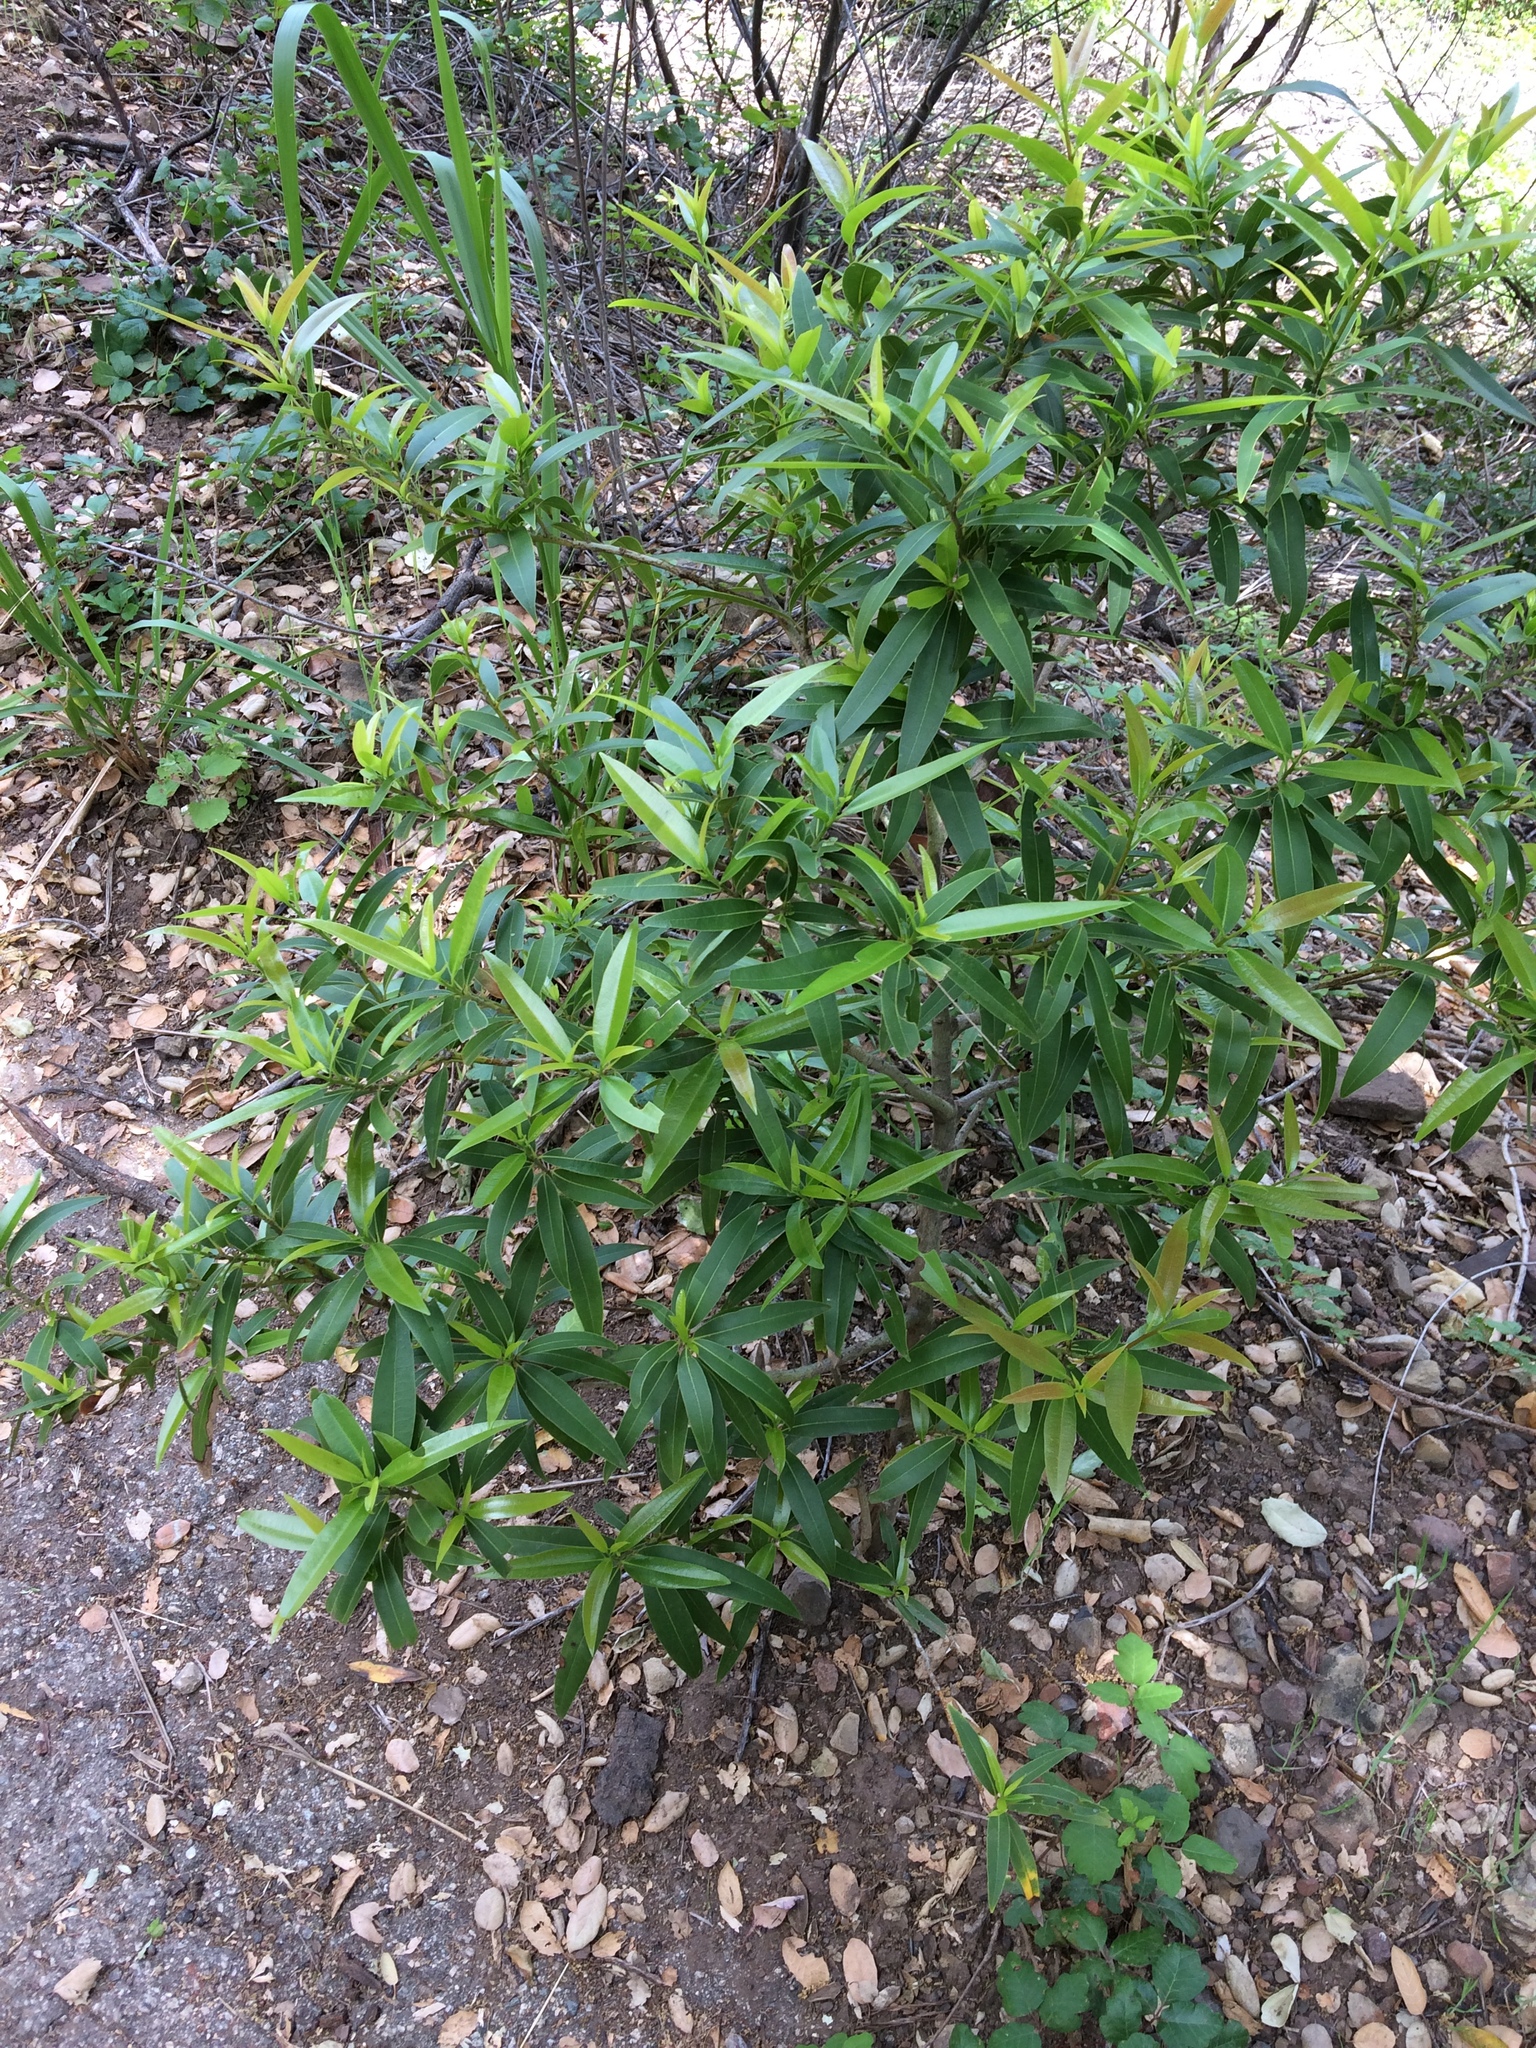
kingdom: Plantae
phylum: Tracheophyta
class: Magnoliopsida
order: Laurales
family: Lauraceae
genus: Umbellularia
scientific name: Umbellularia californica
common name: California bay
